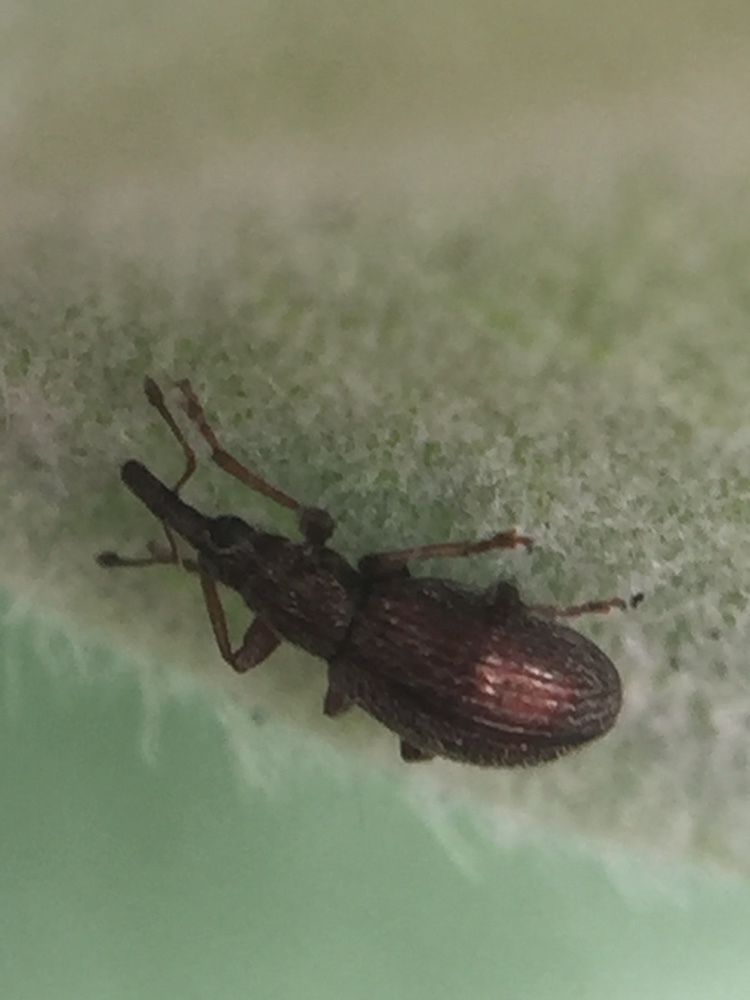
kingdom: Animalia
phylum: Arthropoda
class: Insecta
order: Coleoptera
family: Brentidae
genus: Neocyba
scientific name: Neocyba metrosideros
